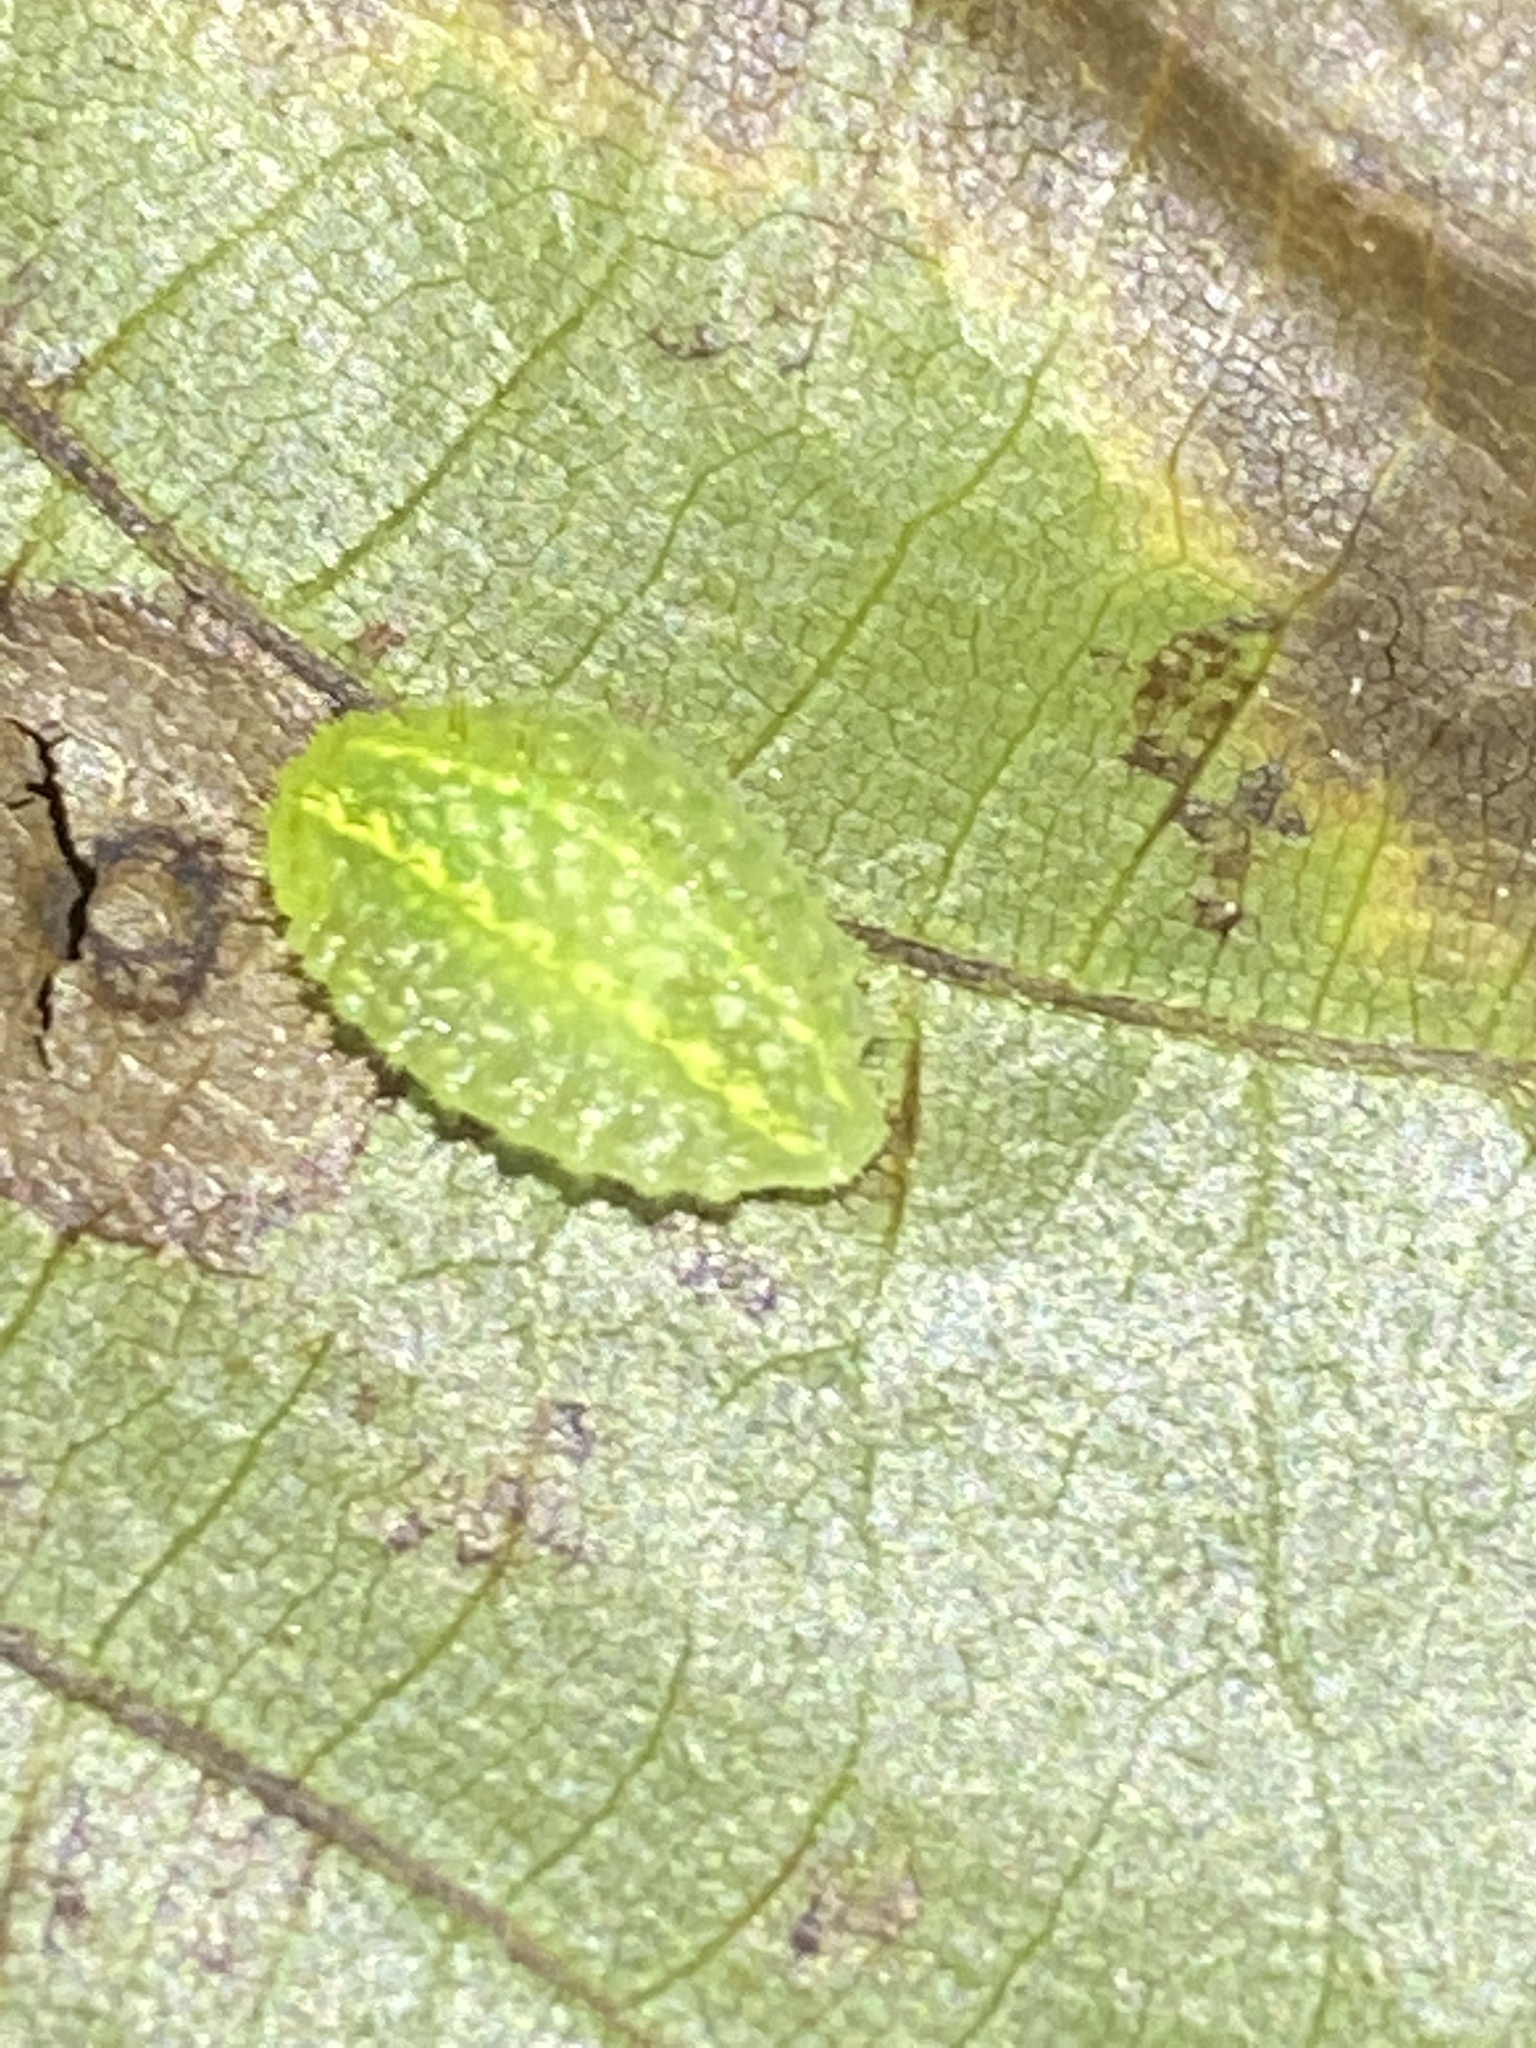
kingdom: Animalia
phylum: Arthropoda
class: Insecta
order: Lepidoptera
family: Limacodidae
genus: Lithacodes
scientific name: Lithacodes fasciola
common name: Yellow-shouldered slug moth
